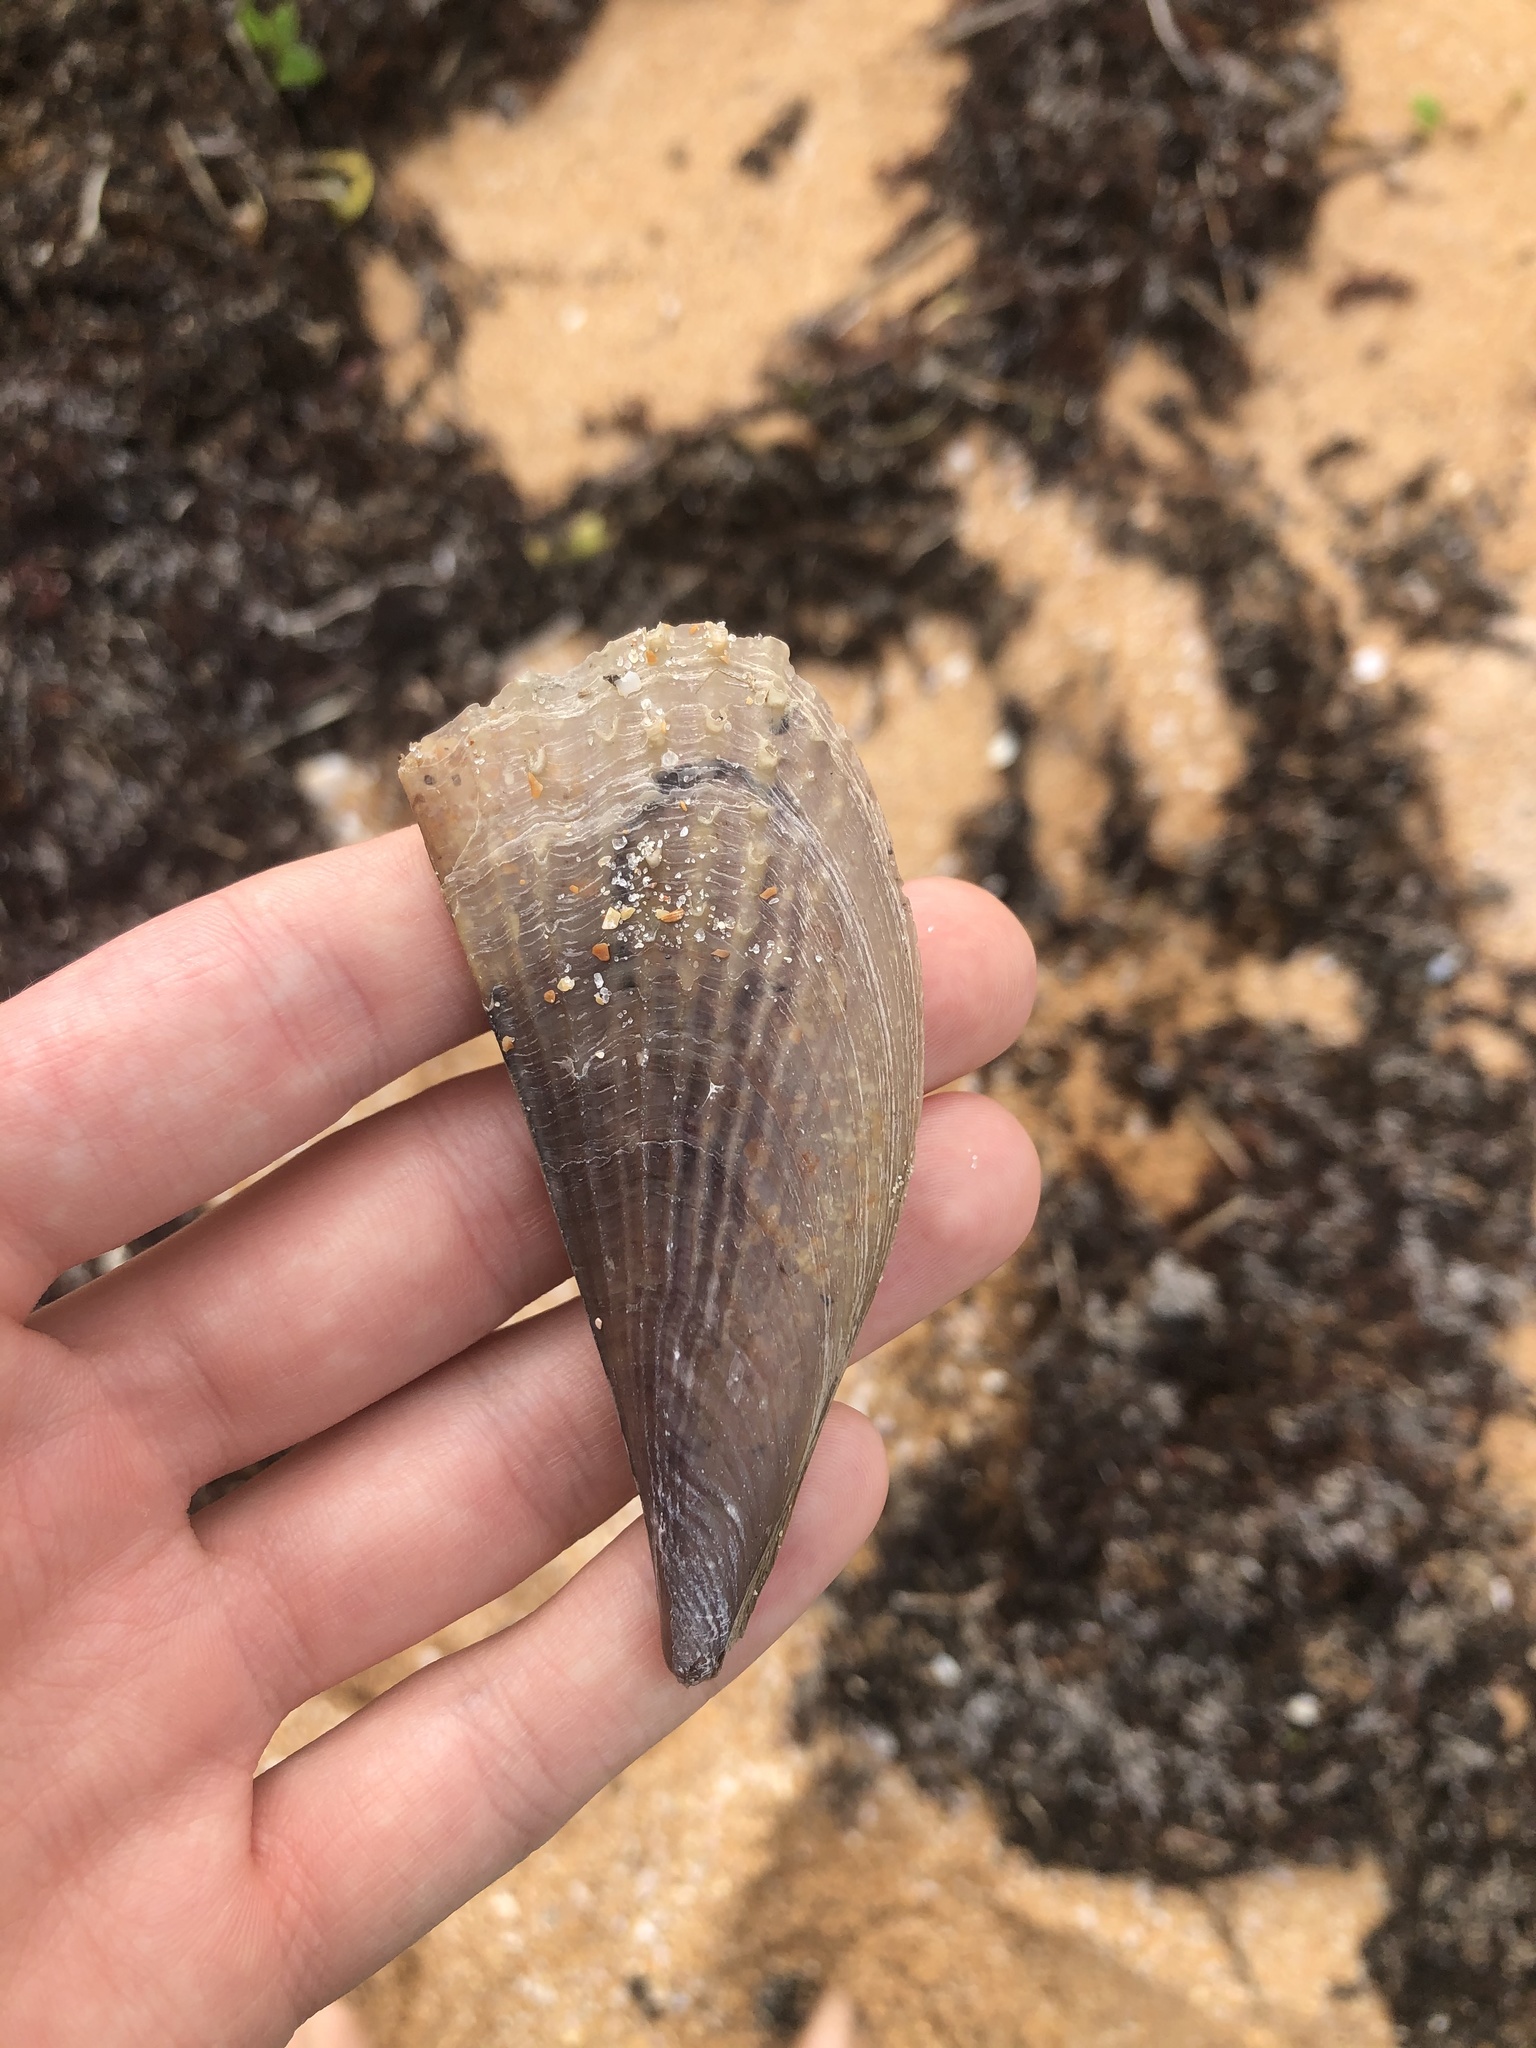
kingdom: Animalia
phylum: Mollusca
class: Bivalvia
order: Ostreida
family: Pinnidae
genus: Atrina
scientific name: Atrina rigida
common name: Stiff penshell
